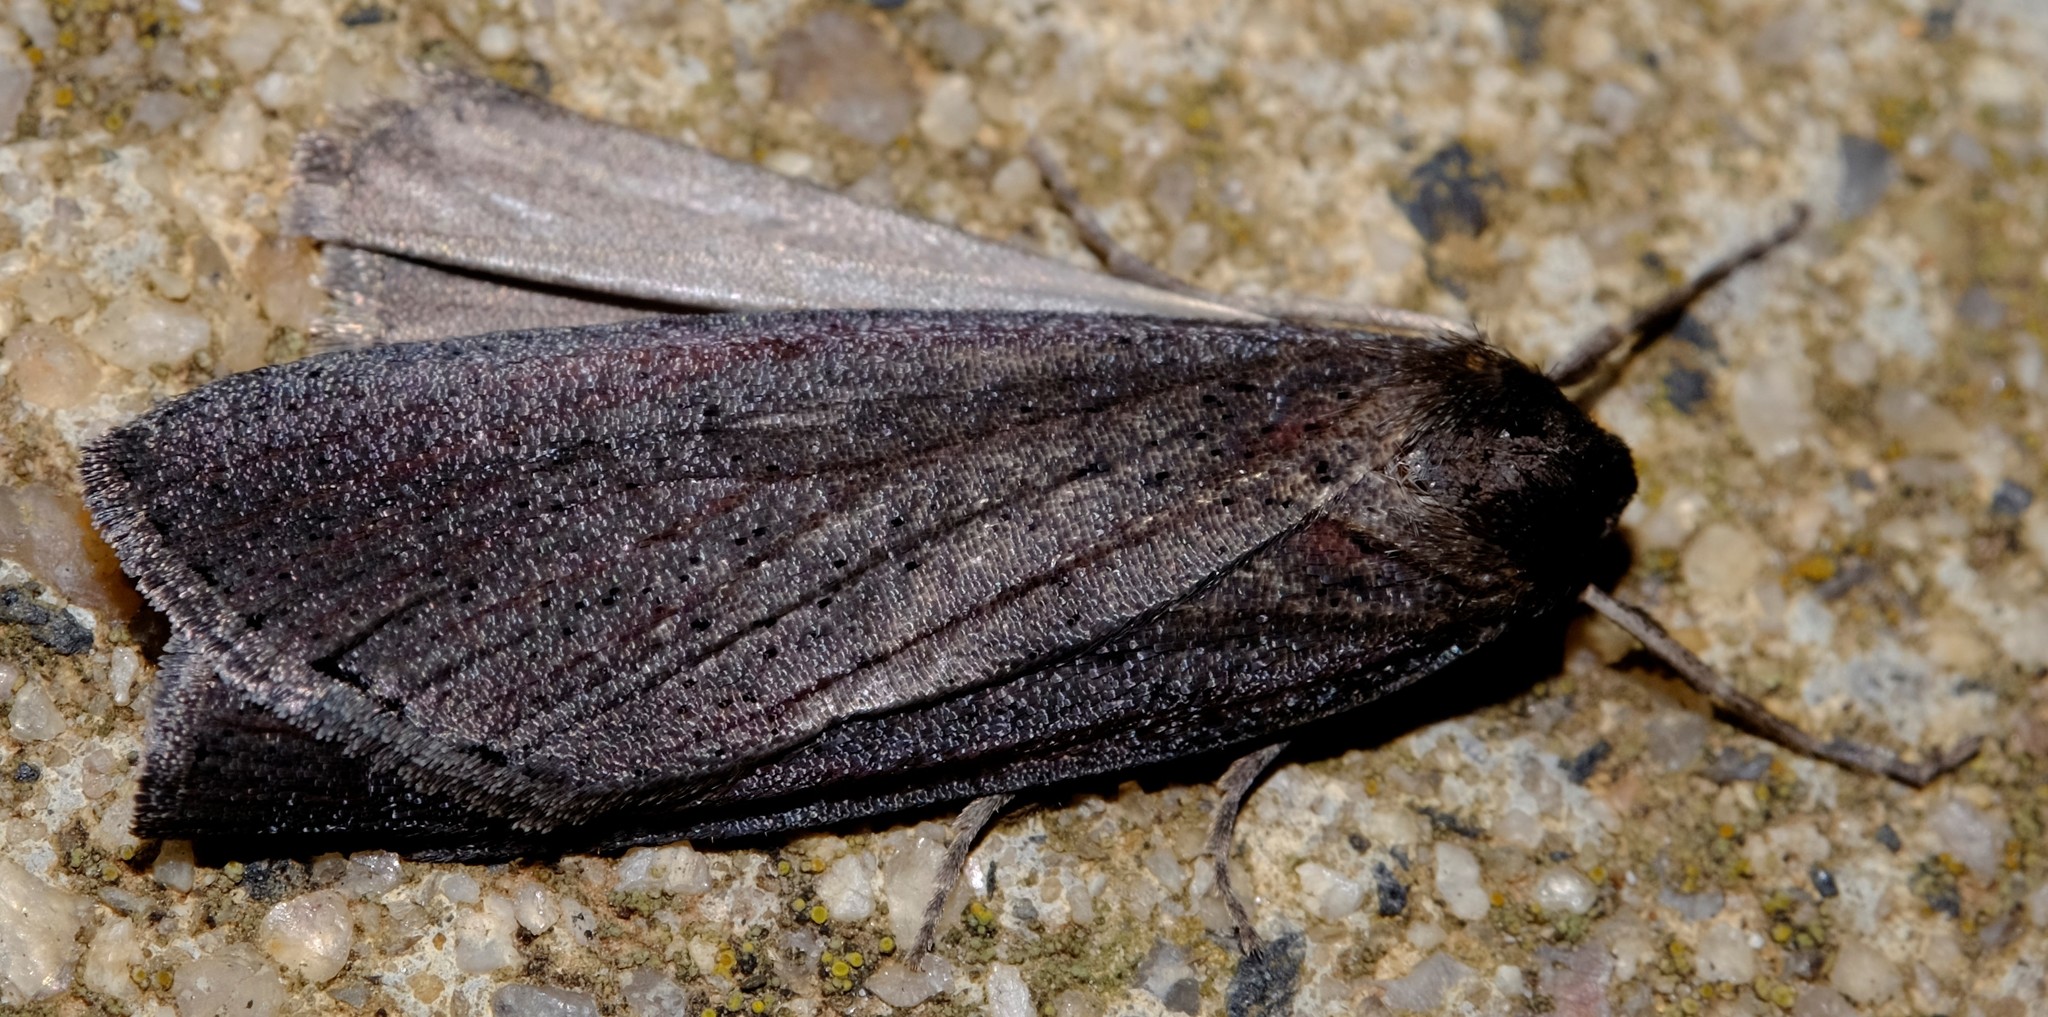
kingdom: Animalia
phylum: Arthropoda
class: Insecta
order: Lepidoptera
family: Geometridae
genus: Chlenias
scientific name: Chlenias seminigra
